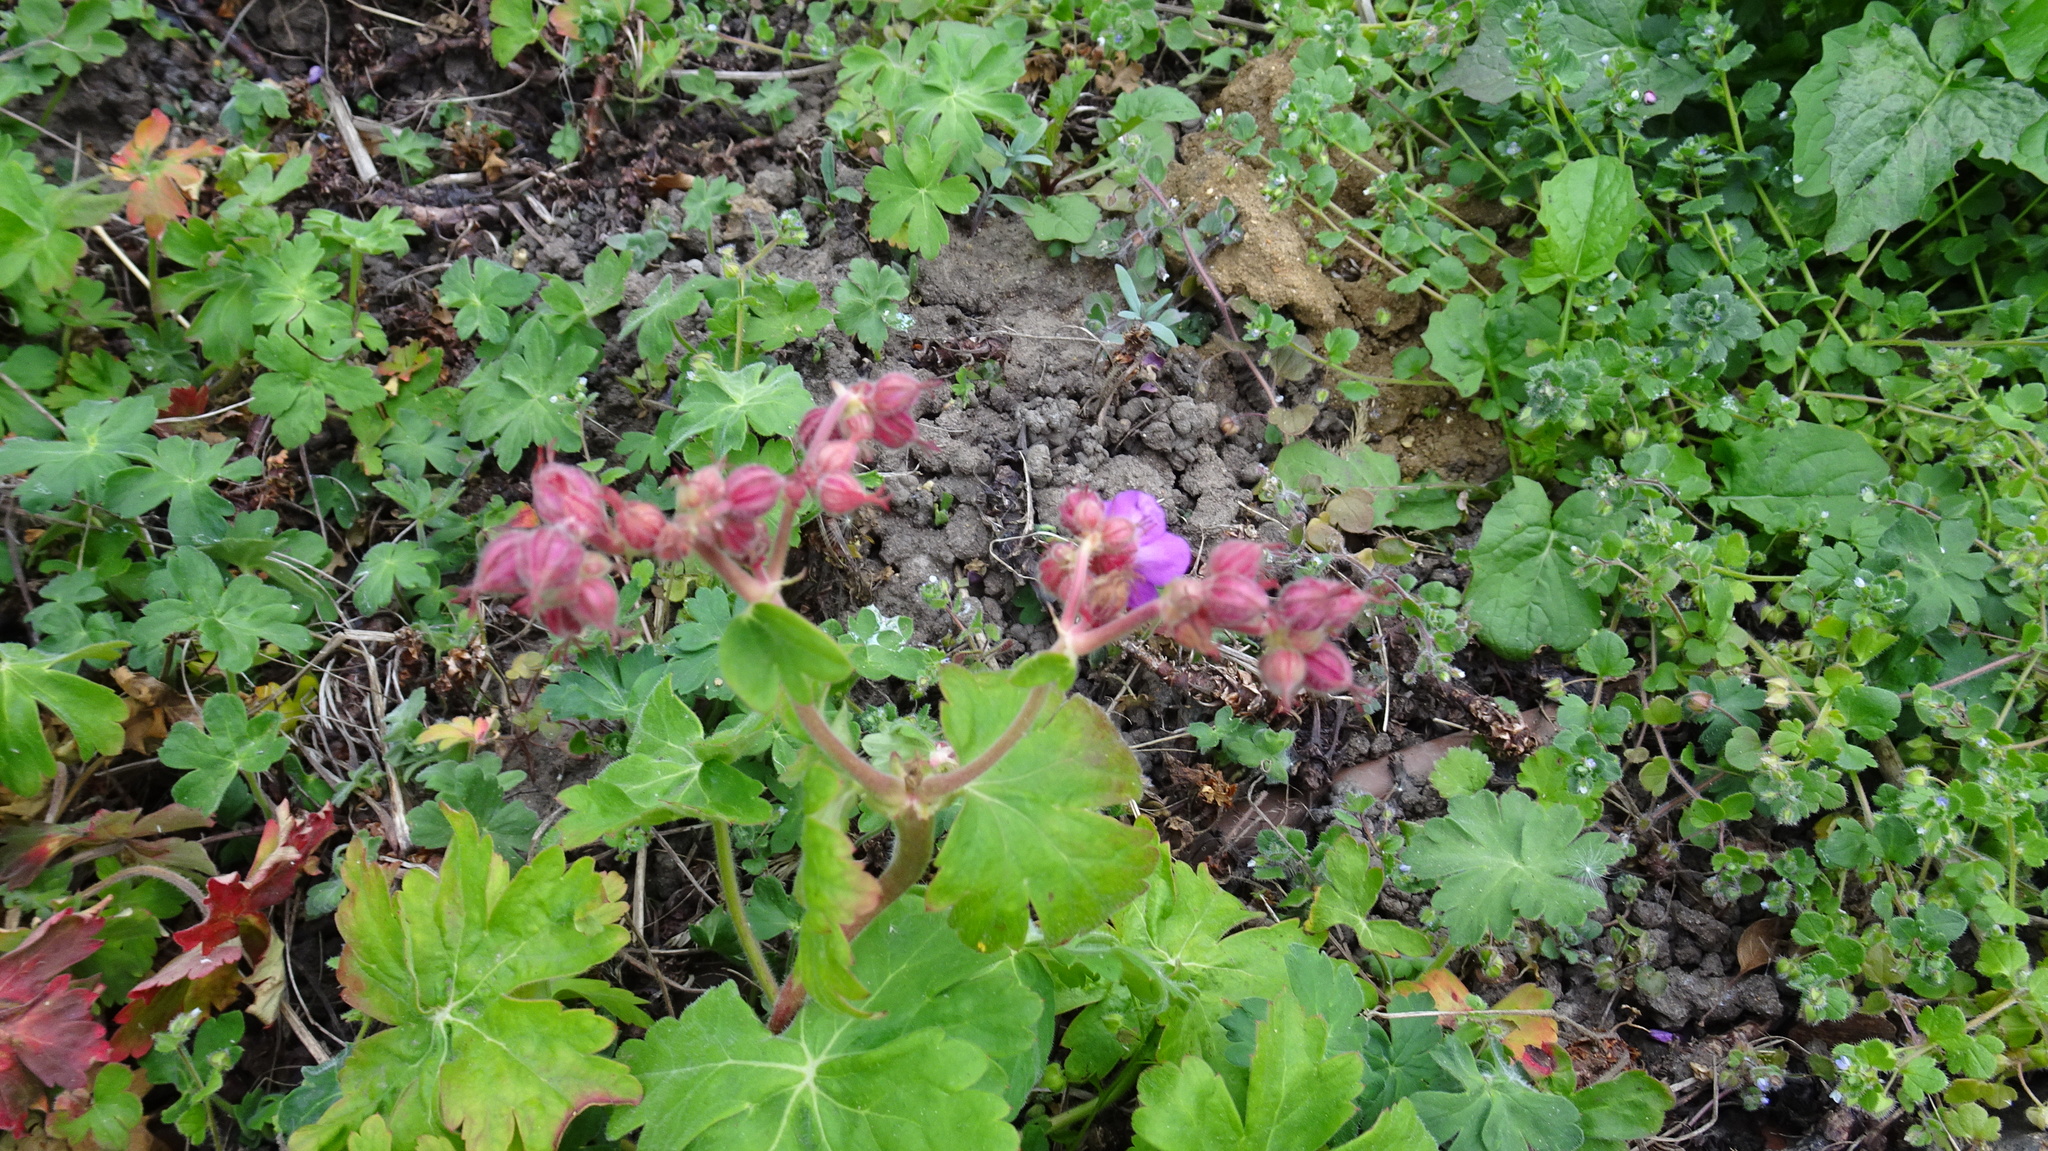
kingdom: Plantae
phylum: Tracheophyta
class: Magnoliopsida
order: Geraniales
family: Geraniaceae
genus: Geranium
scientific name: Geranium macrorrhizum
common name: Rock crane's-bill
